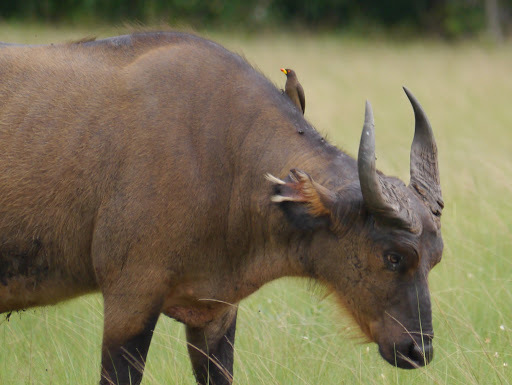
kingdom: Animalia
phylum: Chordata
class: Aves
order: Passeriformes
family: Buphagidae
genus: Buphagus
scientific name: Buphagus africanus
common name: Yellow-billed oxpecker
